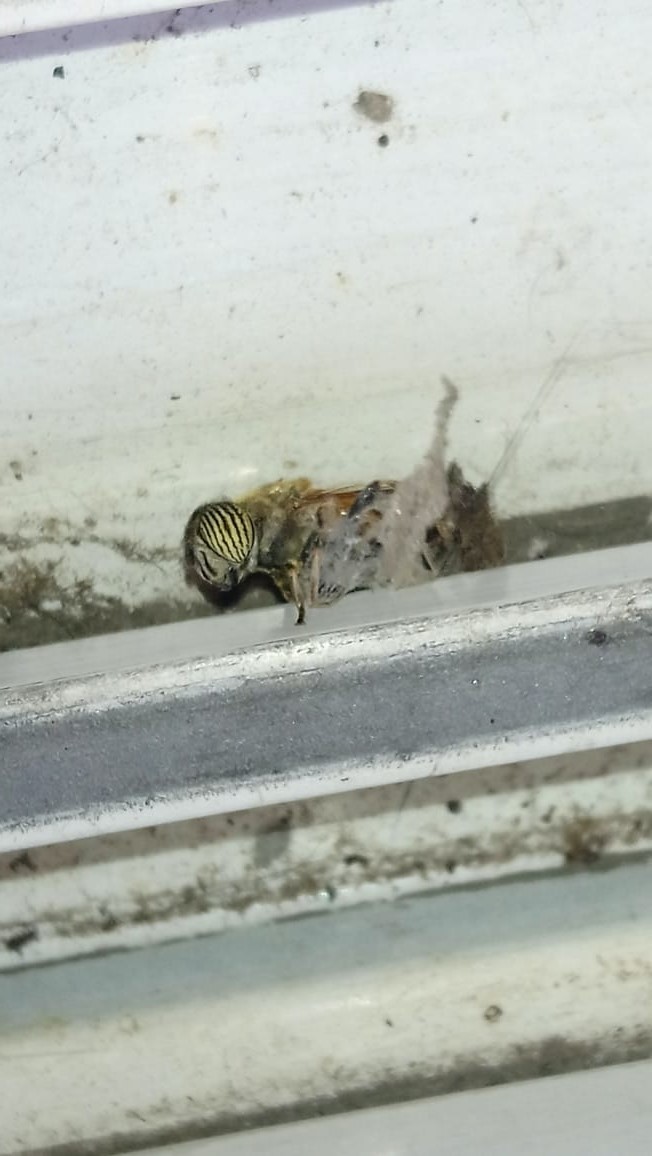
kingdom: Animalia
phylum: Arthropoda
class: Insecta
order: Diptera
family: Syrphidae
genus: Eristalinus
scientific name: Eristalinus taeniops
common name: Syrphid fly
